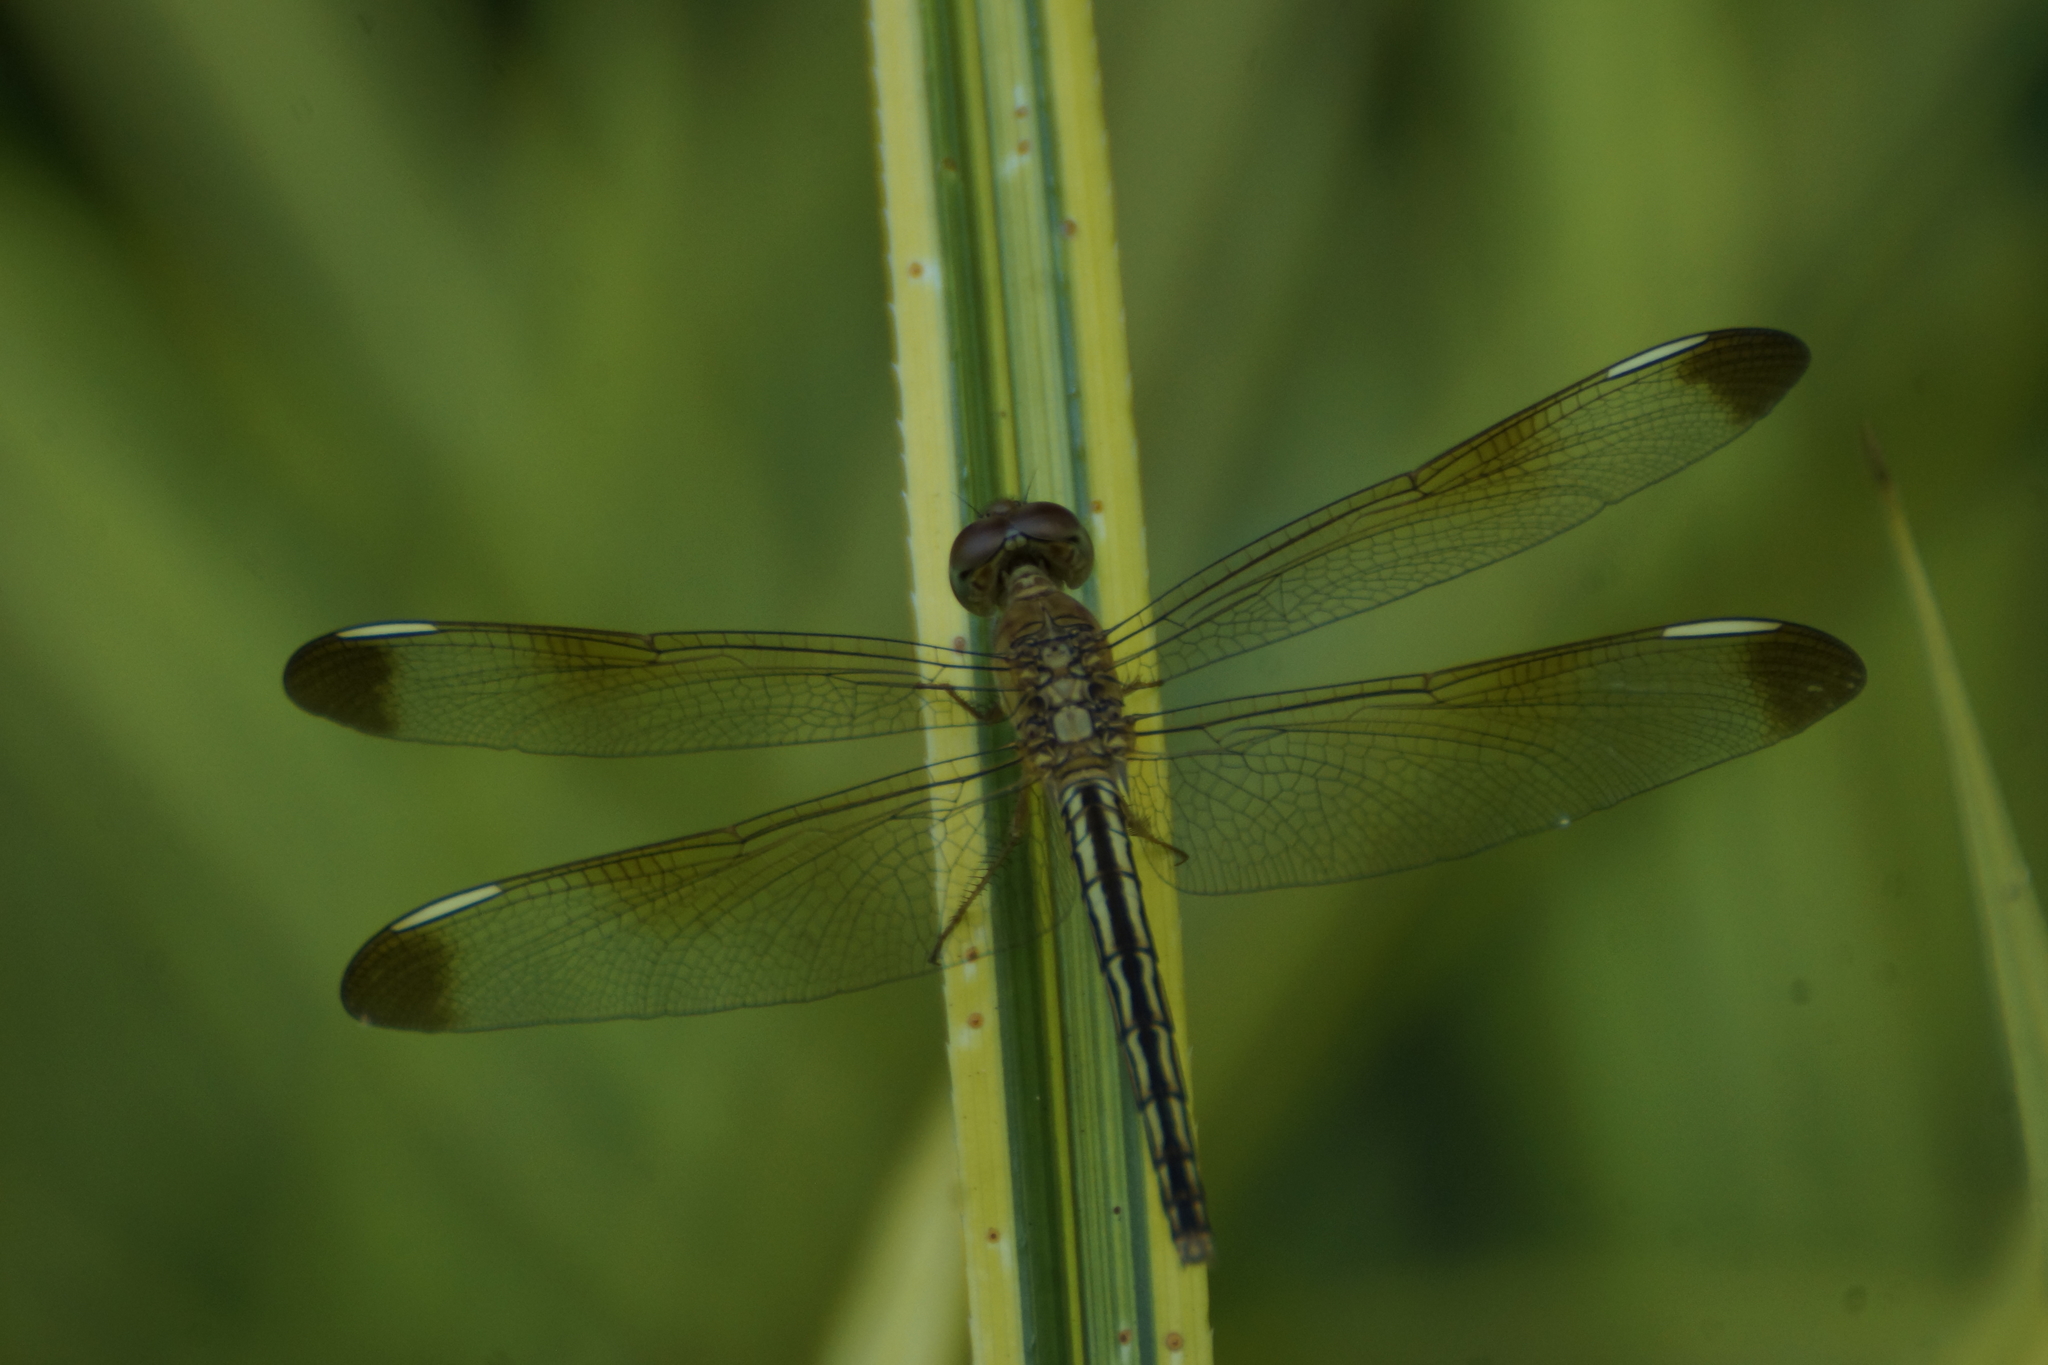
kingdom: Animalia
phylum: Arthropoda
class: Insecta
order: Odonata
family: Libellulidae
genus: Neurothemis
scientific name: Neurothemis stigmatizans
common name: Painted grasshawk
